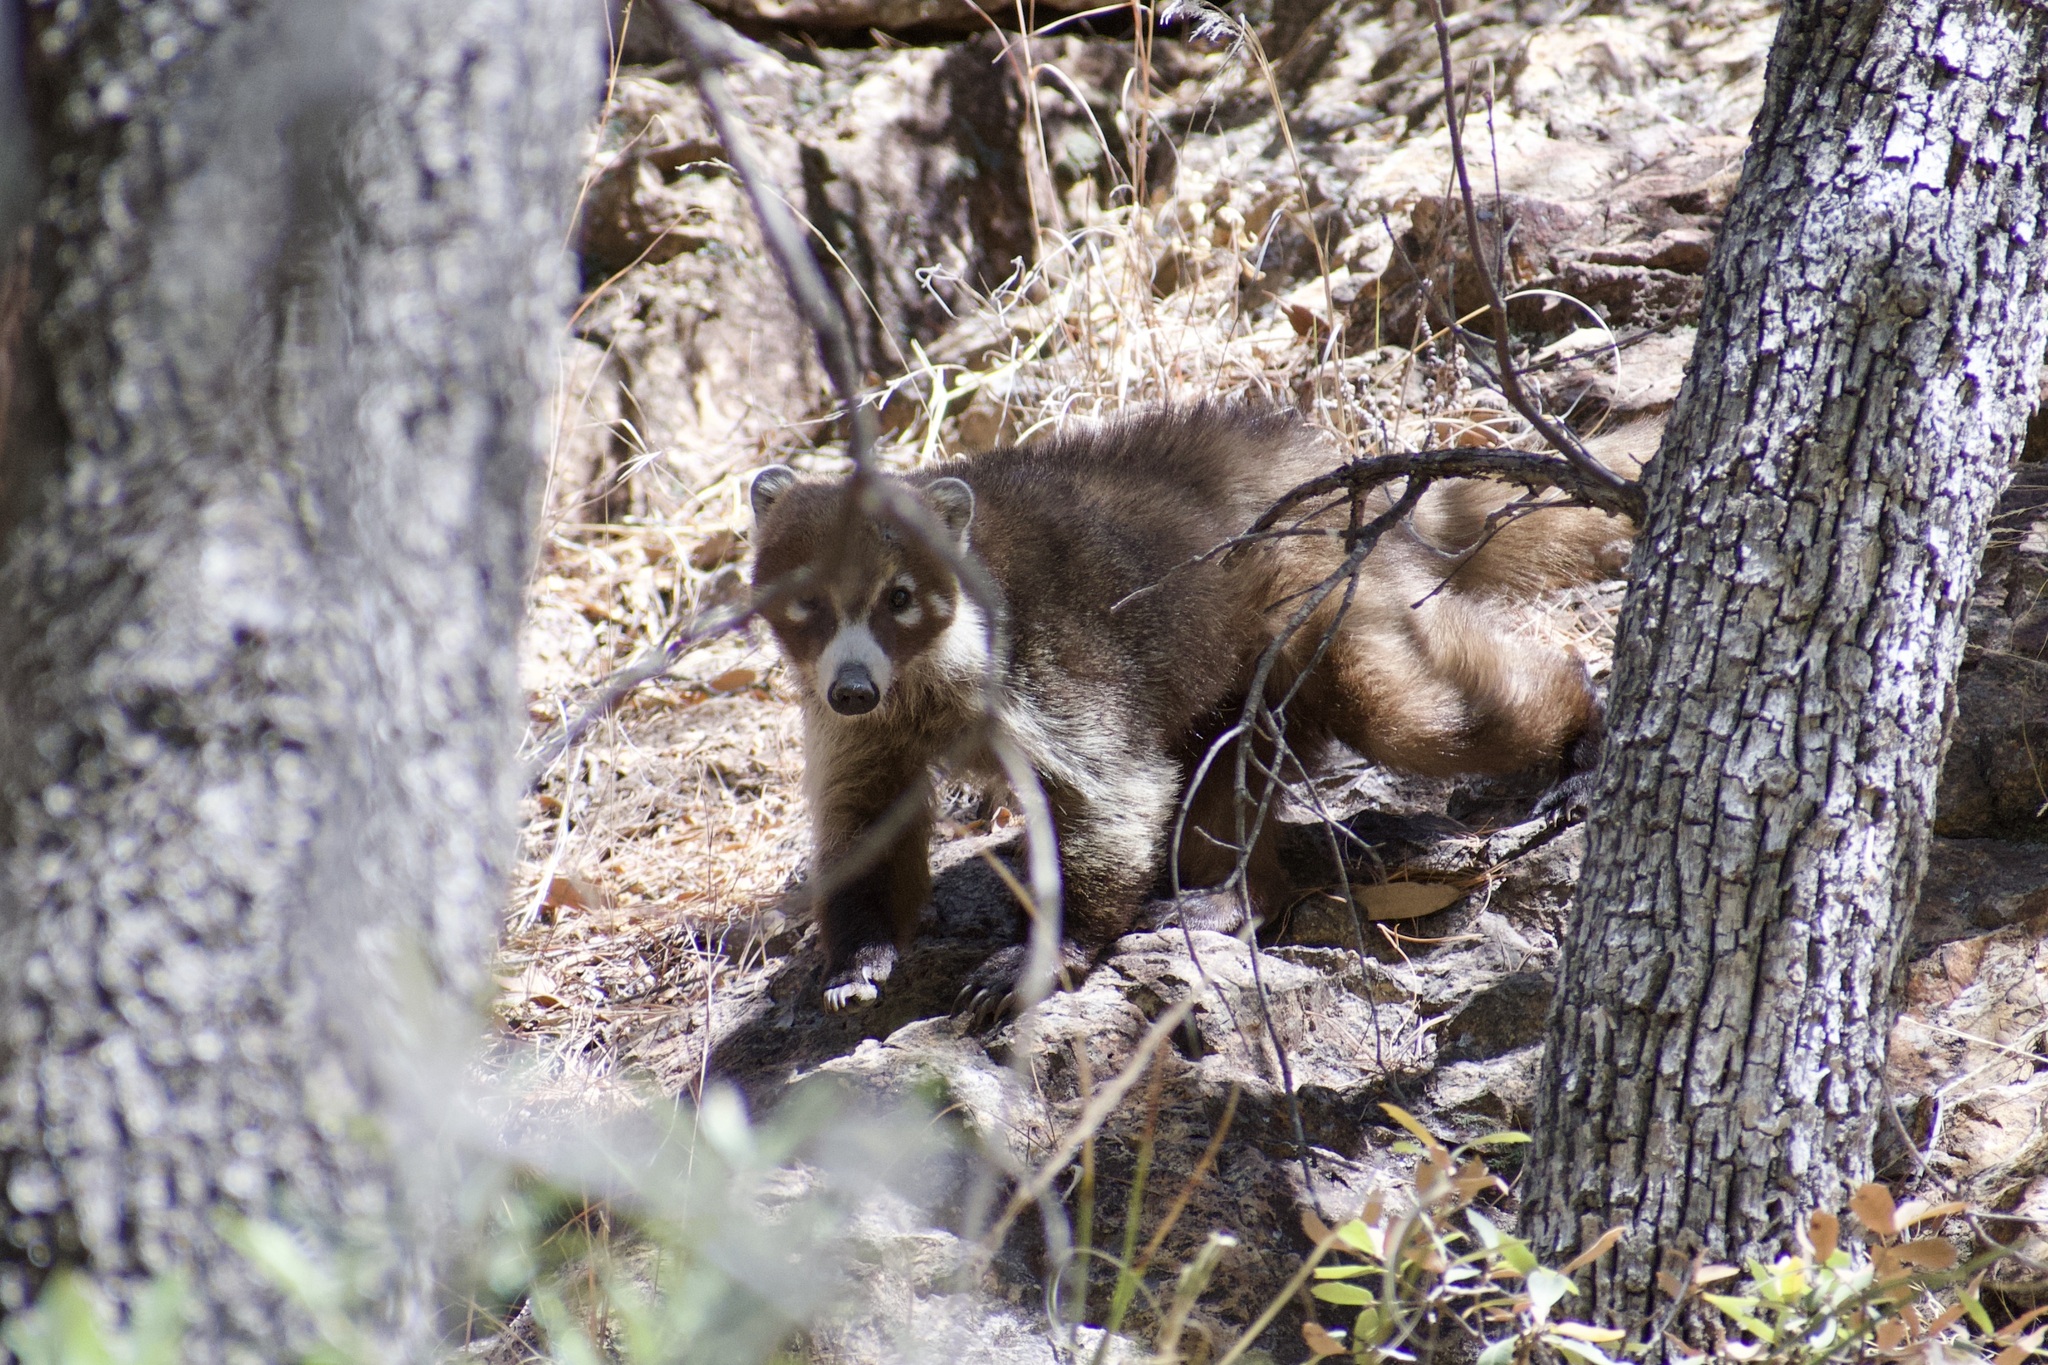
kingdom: Animalia
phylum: Chordata
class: Mammalia
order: Carnivora
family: Procyonidae
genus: Nasua
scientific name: Nasua narica
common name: White-nosed coati
